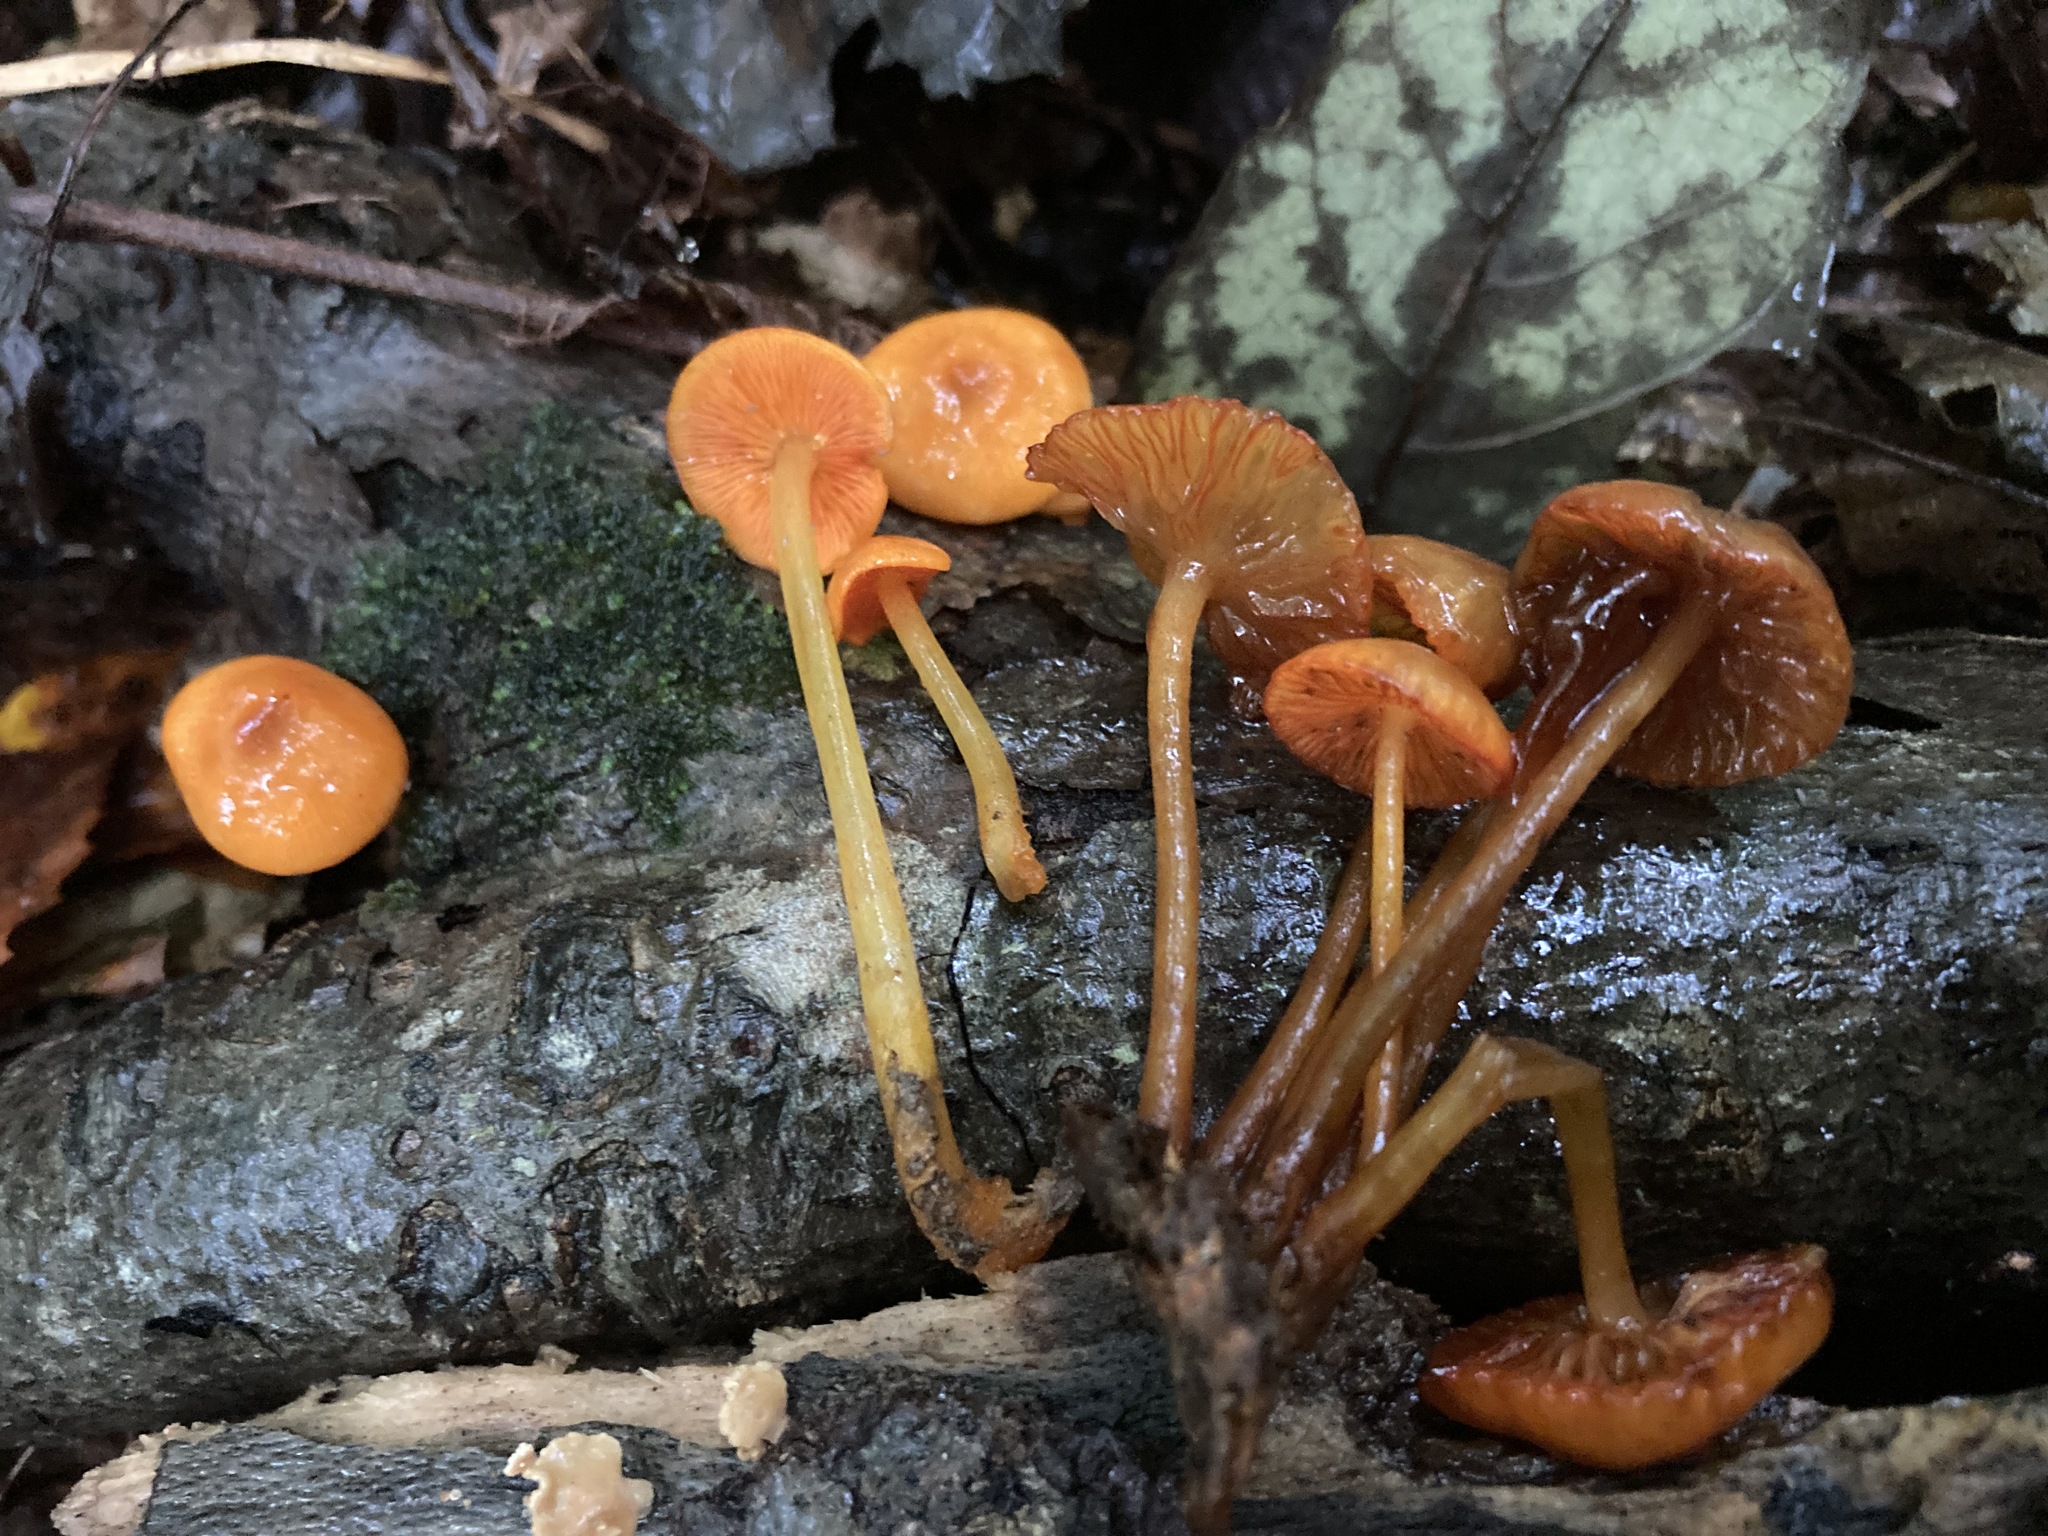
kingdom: Fungi
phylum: Basidiomycota
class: Agaricomycetes
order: Agaricales
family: Mycenaceae
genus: Mycena
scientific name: Mycena leaiana
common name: Orange mycena
